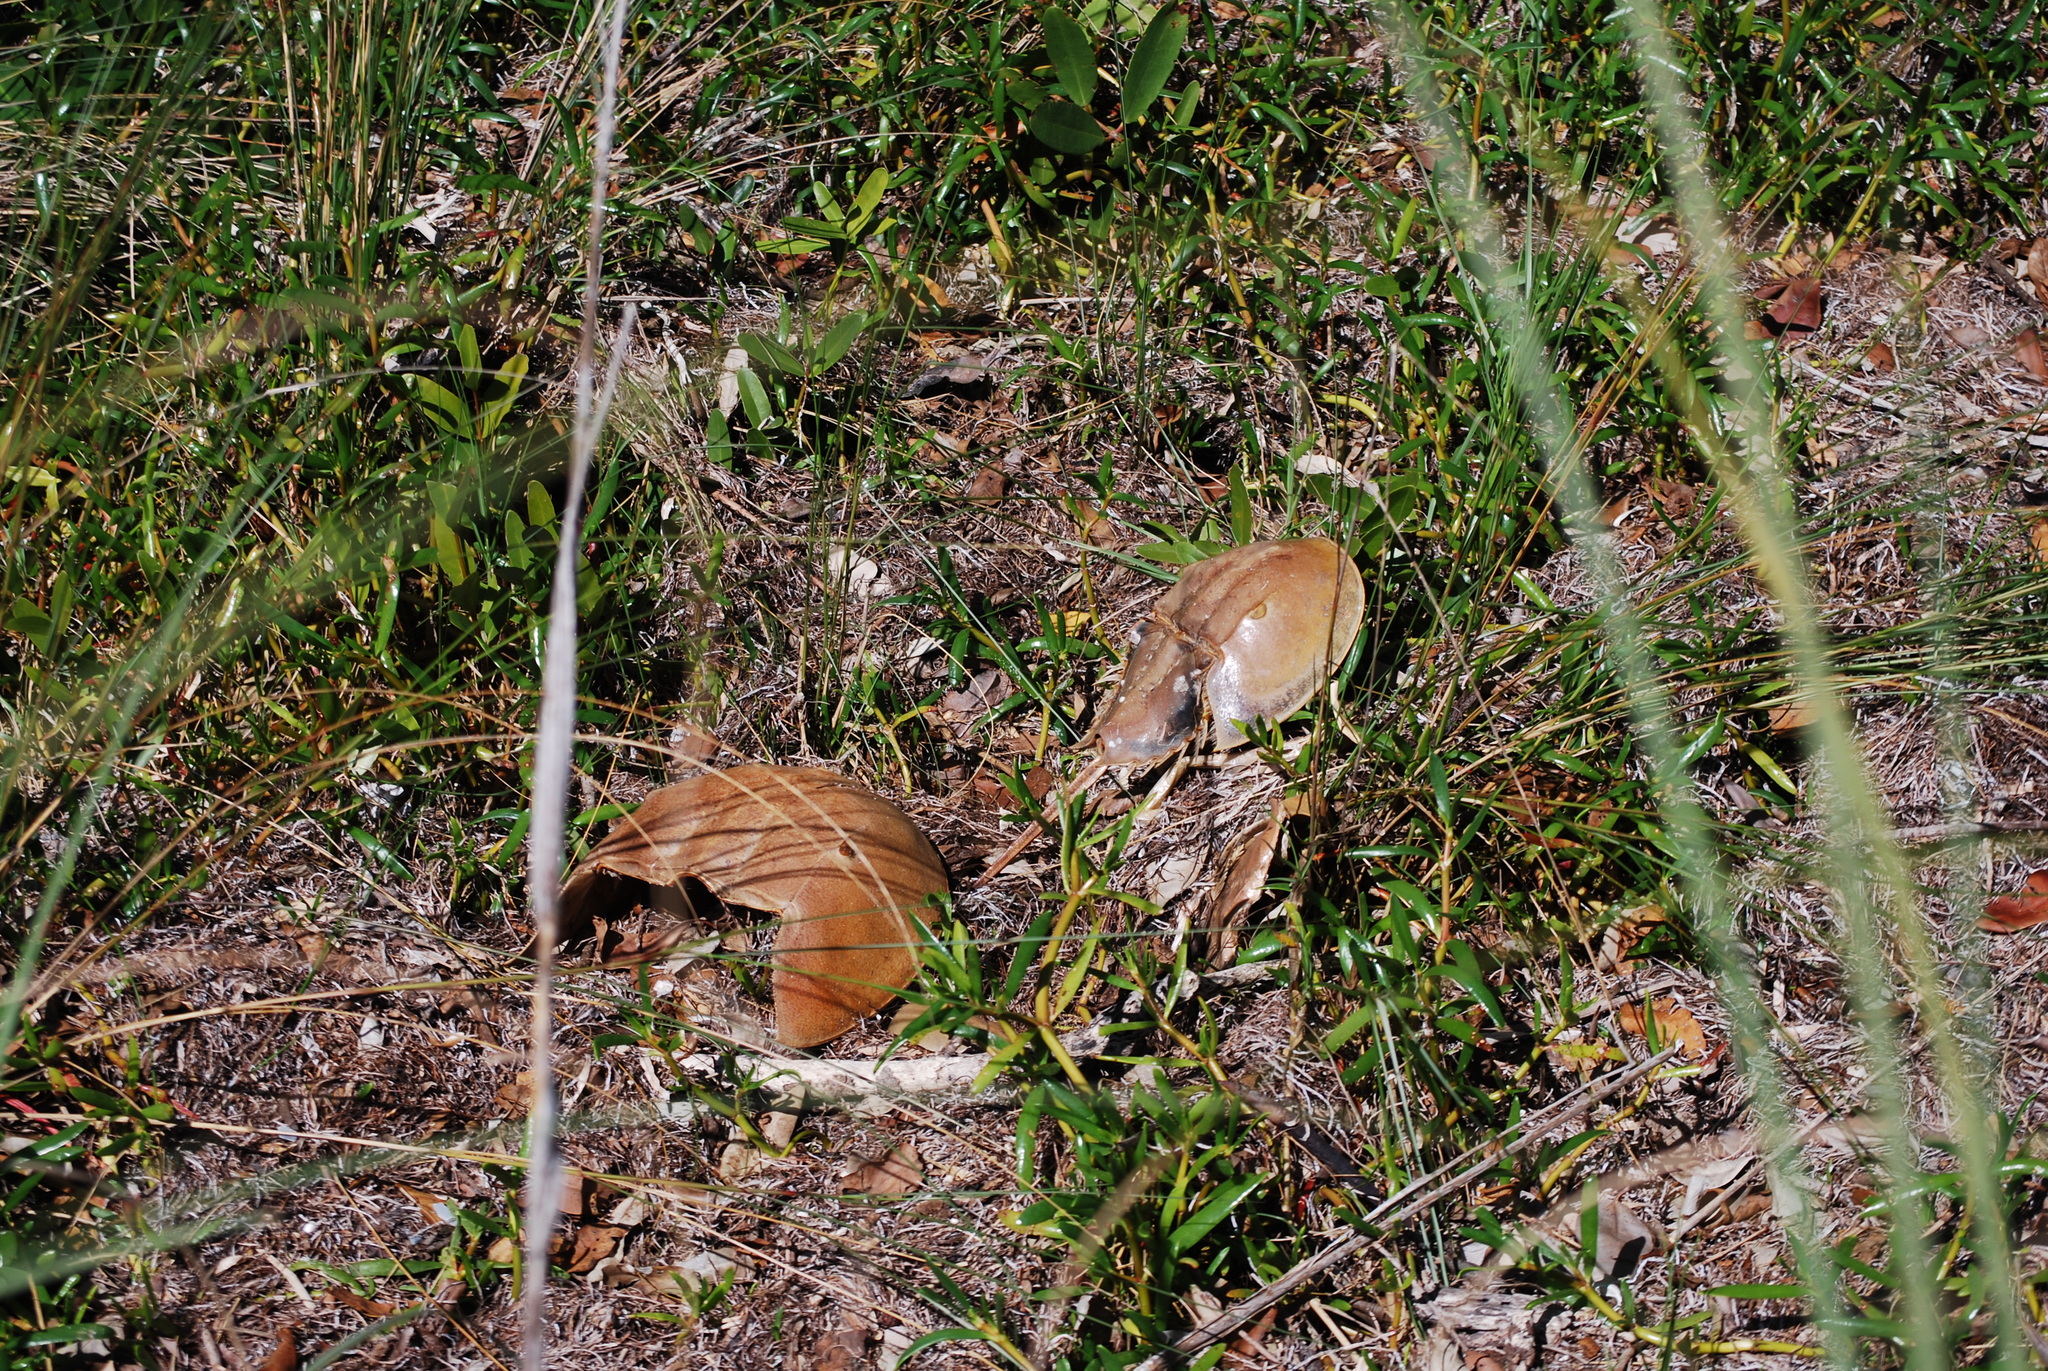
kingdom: Animalia
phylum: Arthropoda
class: Merostomata
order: Xiphosurida
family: Limulidae
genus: Limulus
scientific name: Limulus polyphemus
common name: Horseshoe crab
